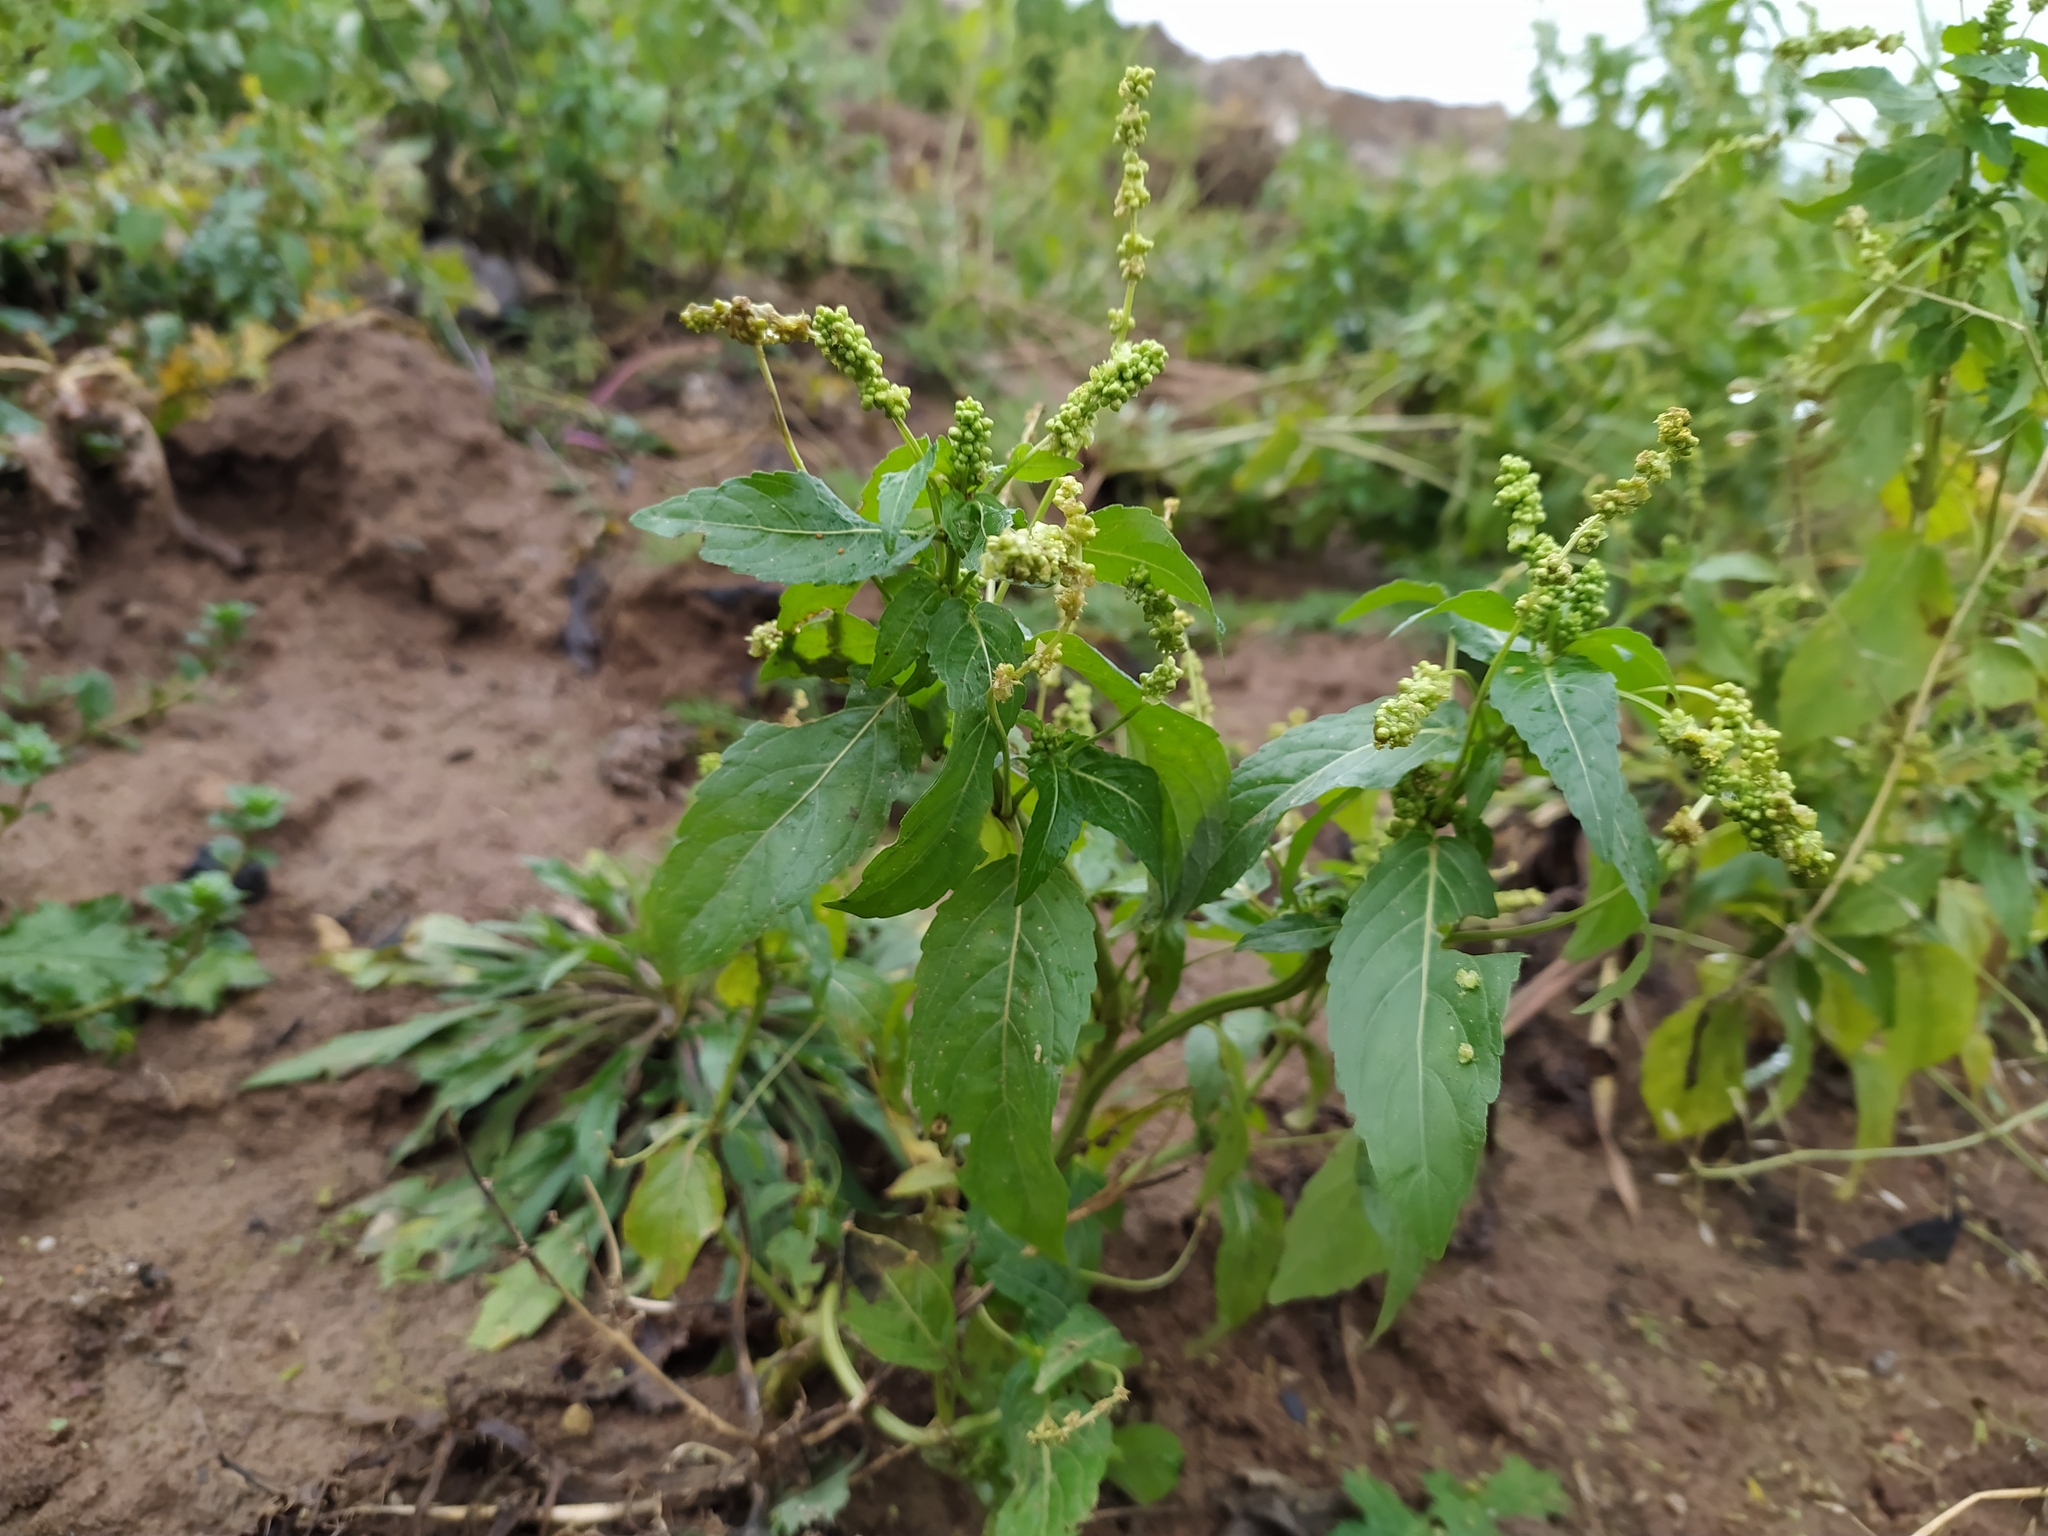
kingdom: Plantae
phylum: Tracheophyta
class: Magnoliopsida
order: Malpighiales
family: Euphorbiaceae
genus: Mercurialis
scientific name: Mercurialis annua
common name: Annual mercury
